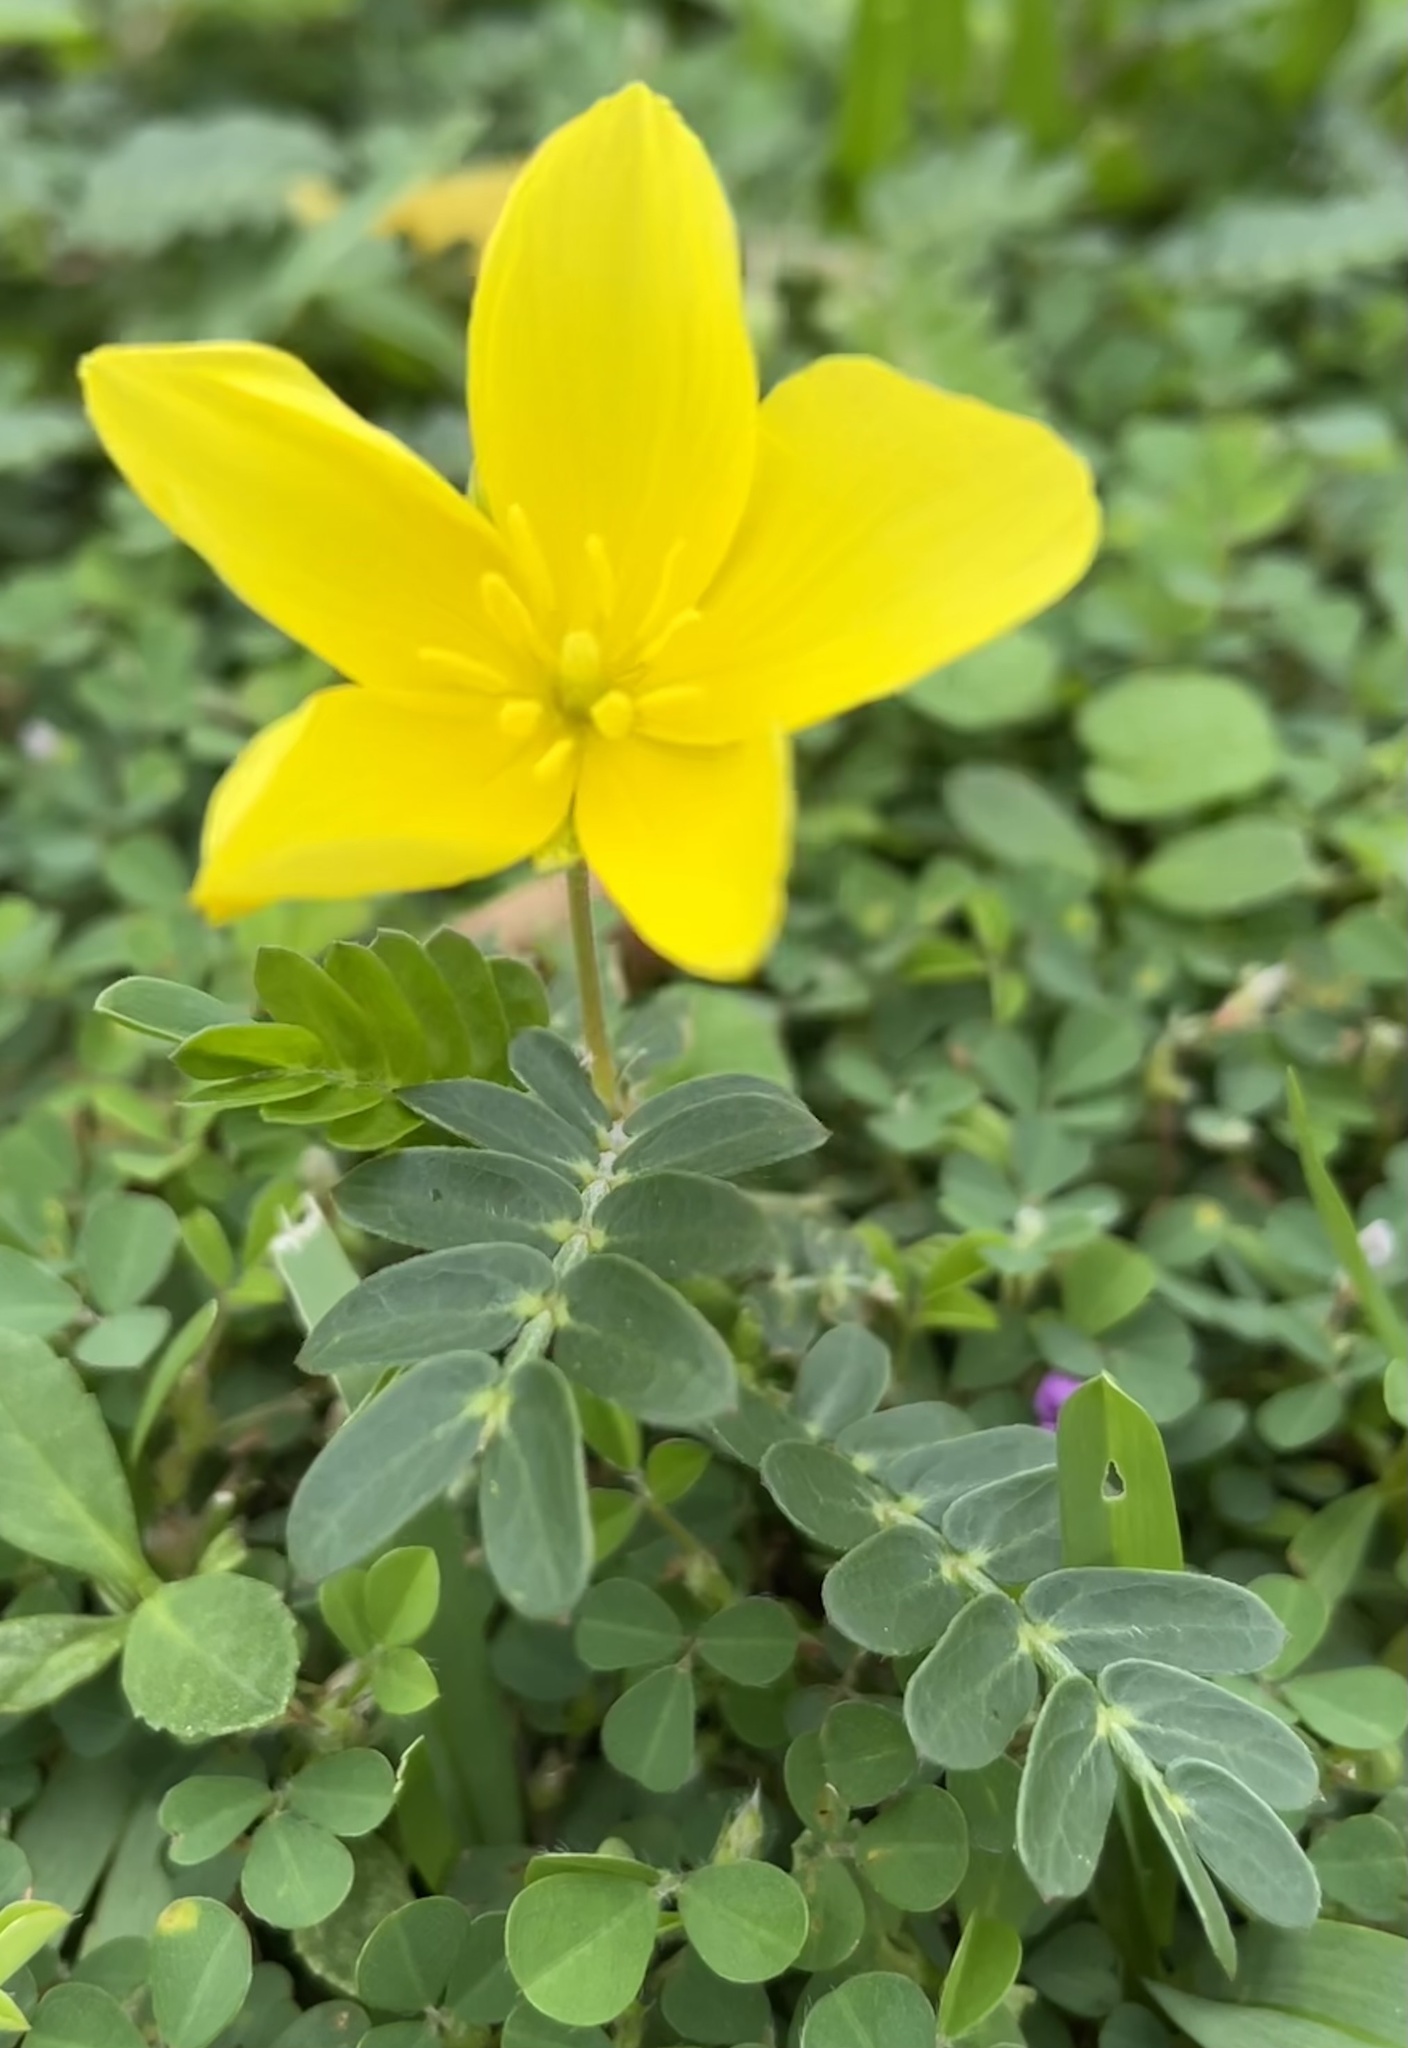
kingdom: Plantae
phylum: Tracheophyta
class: Magnoliopsida
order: Zygophyllales
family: Zygophyllaceae
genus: Tribulus
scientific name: Tribulus cistoides
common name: Jamaican feverplant
